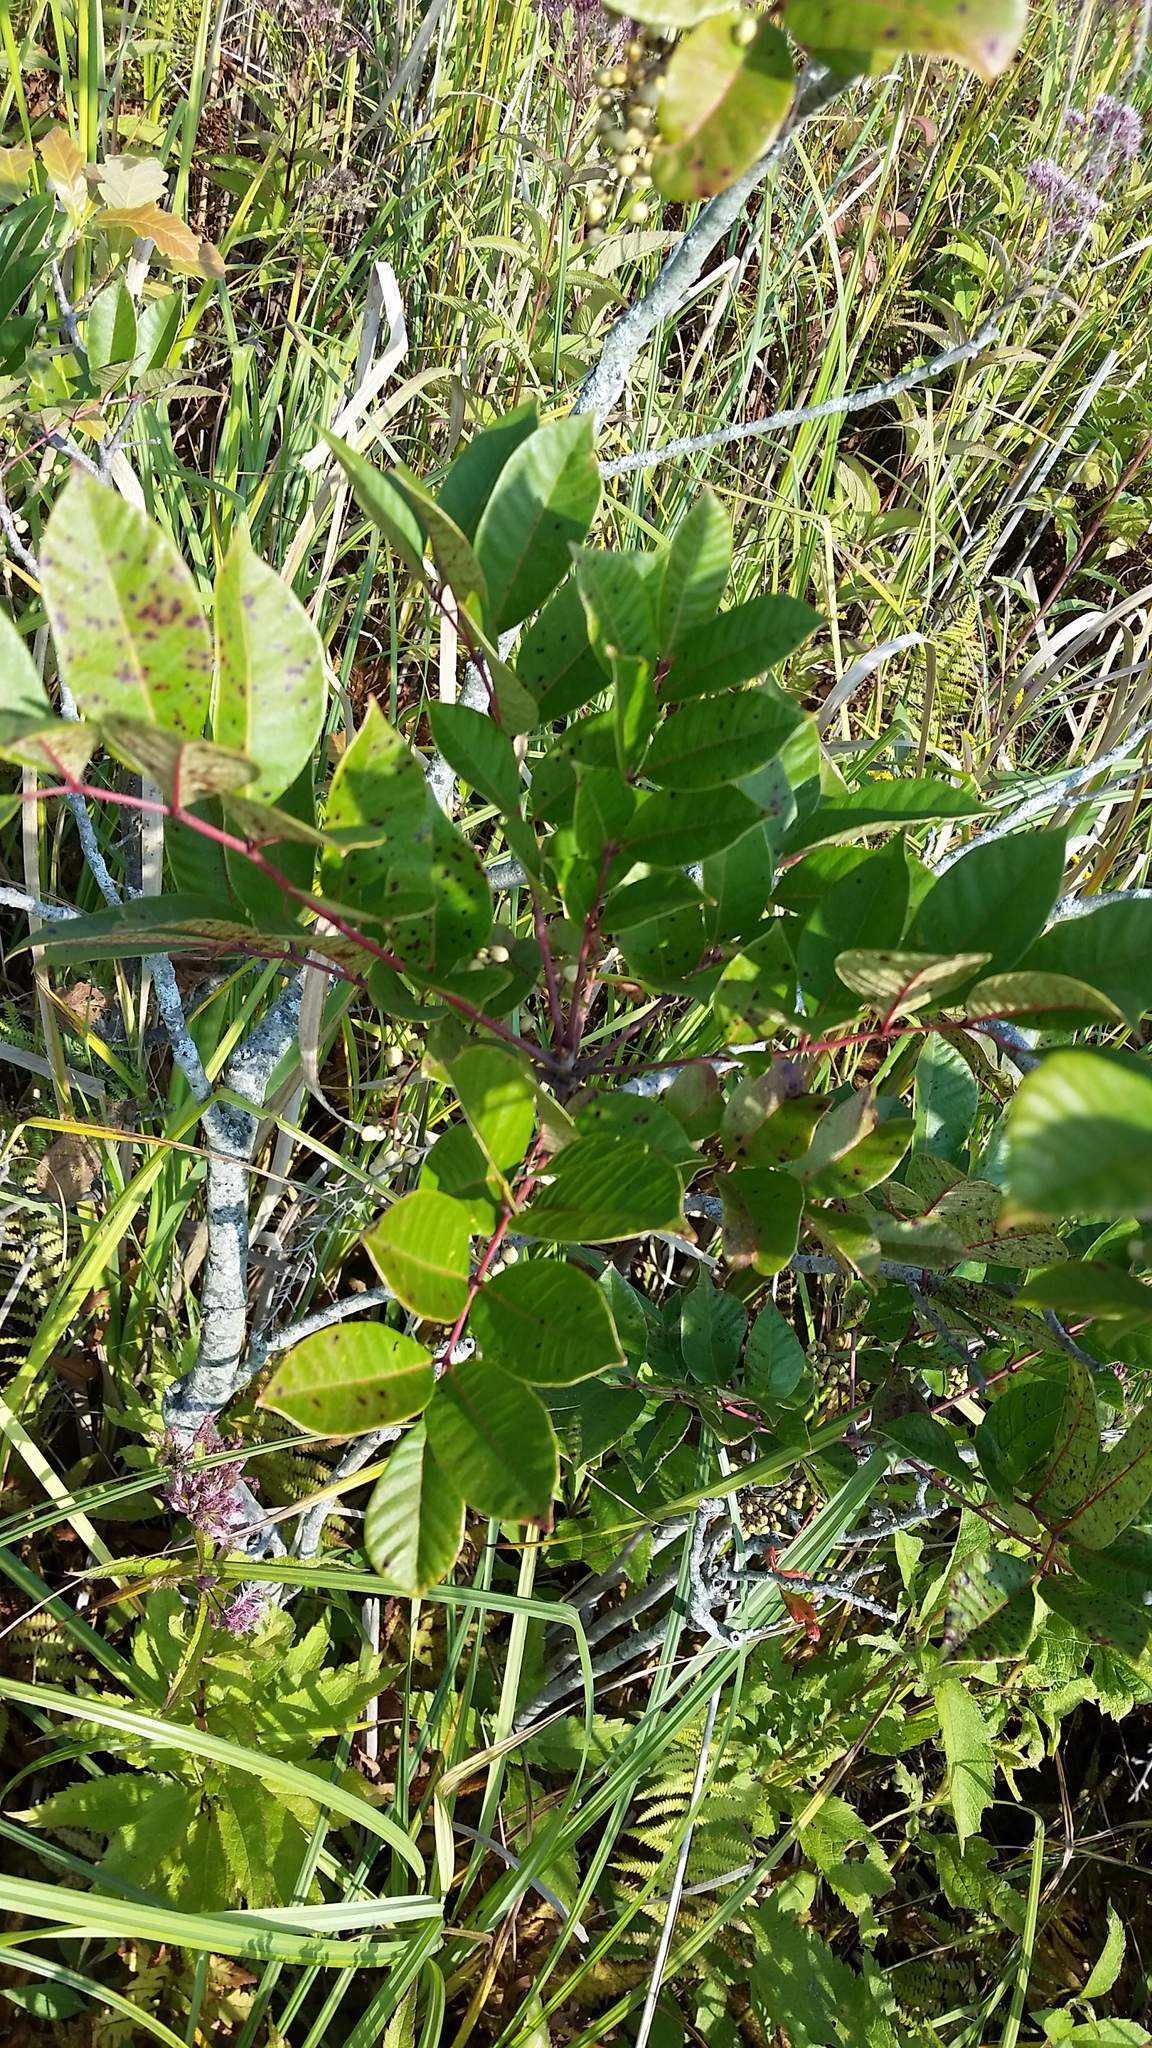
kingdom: Plantae
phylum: Tracheophyta
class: Magnoliopsida
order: Sapindales
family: Anacardiaceae
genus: Toxicodendron
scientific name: Toxicodendron vernix
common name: Poison sumac
